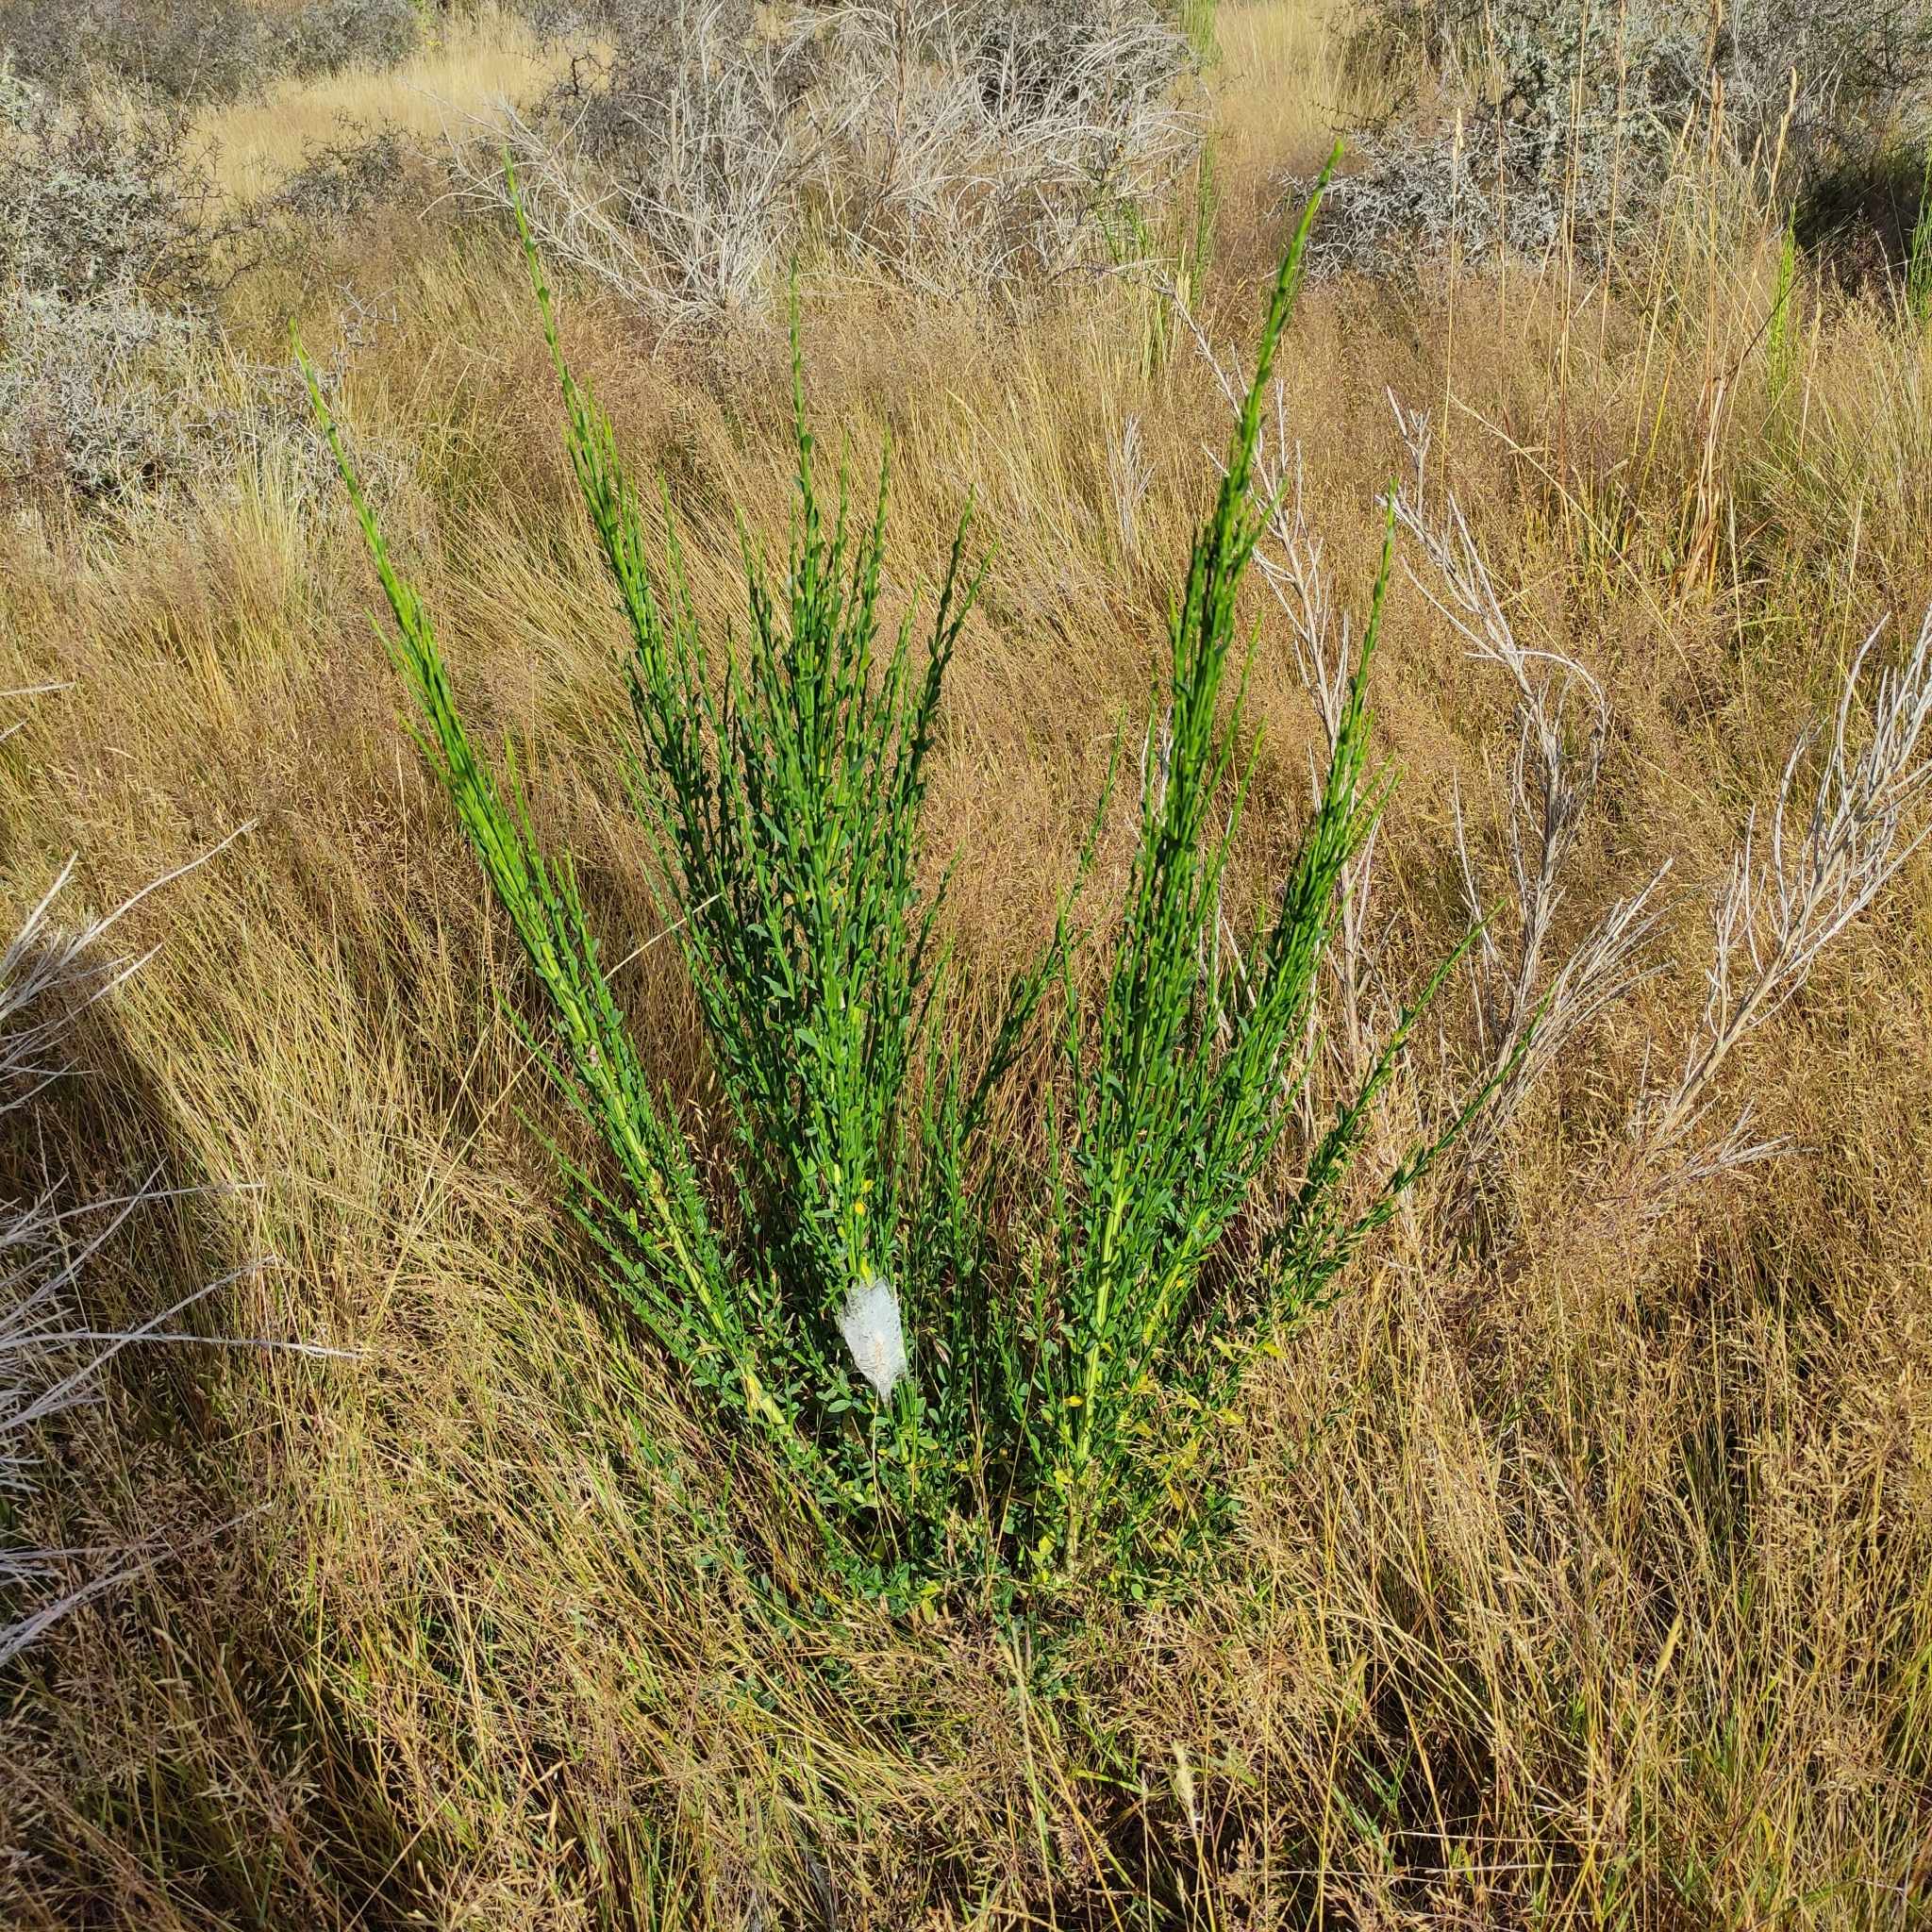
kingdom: Plantae
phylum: Tracheophyta
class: Magnoliopsida
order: Fabales
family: Fabaceae
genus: Cytisus
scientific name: Cytisus scoparius
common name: Scotch broom
